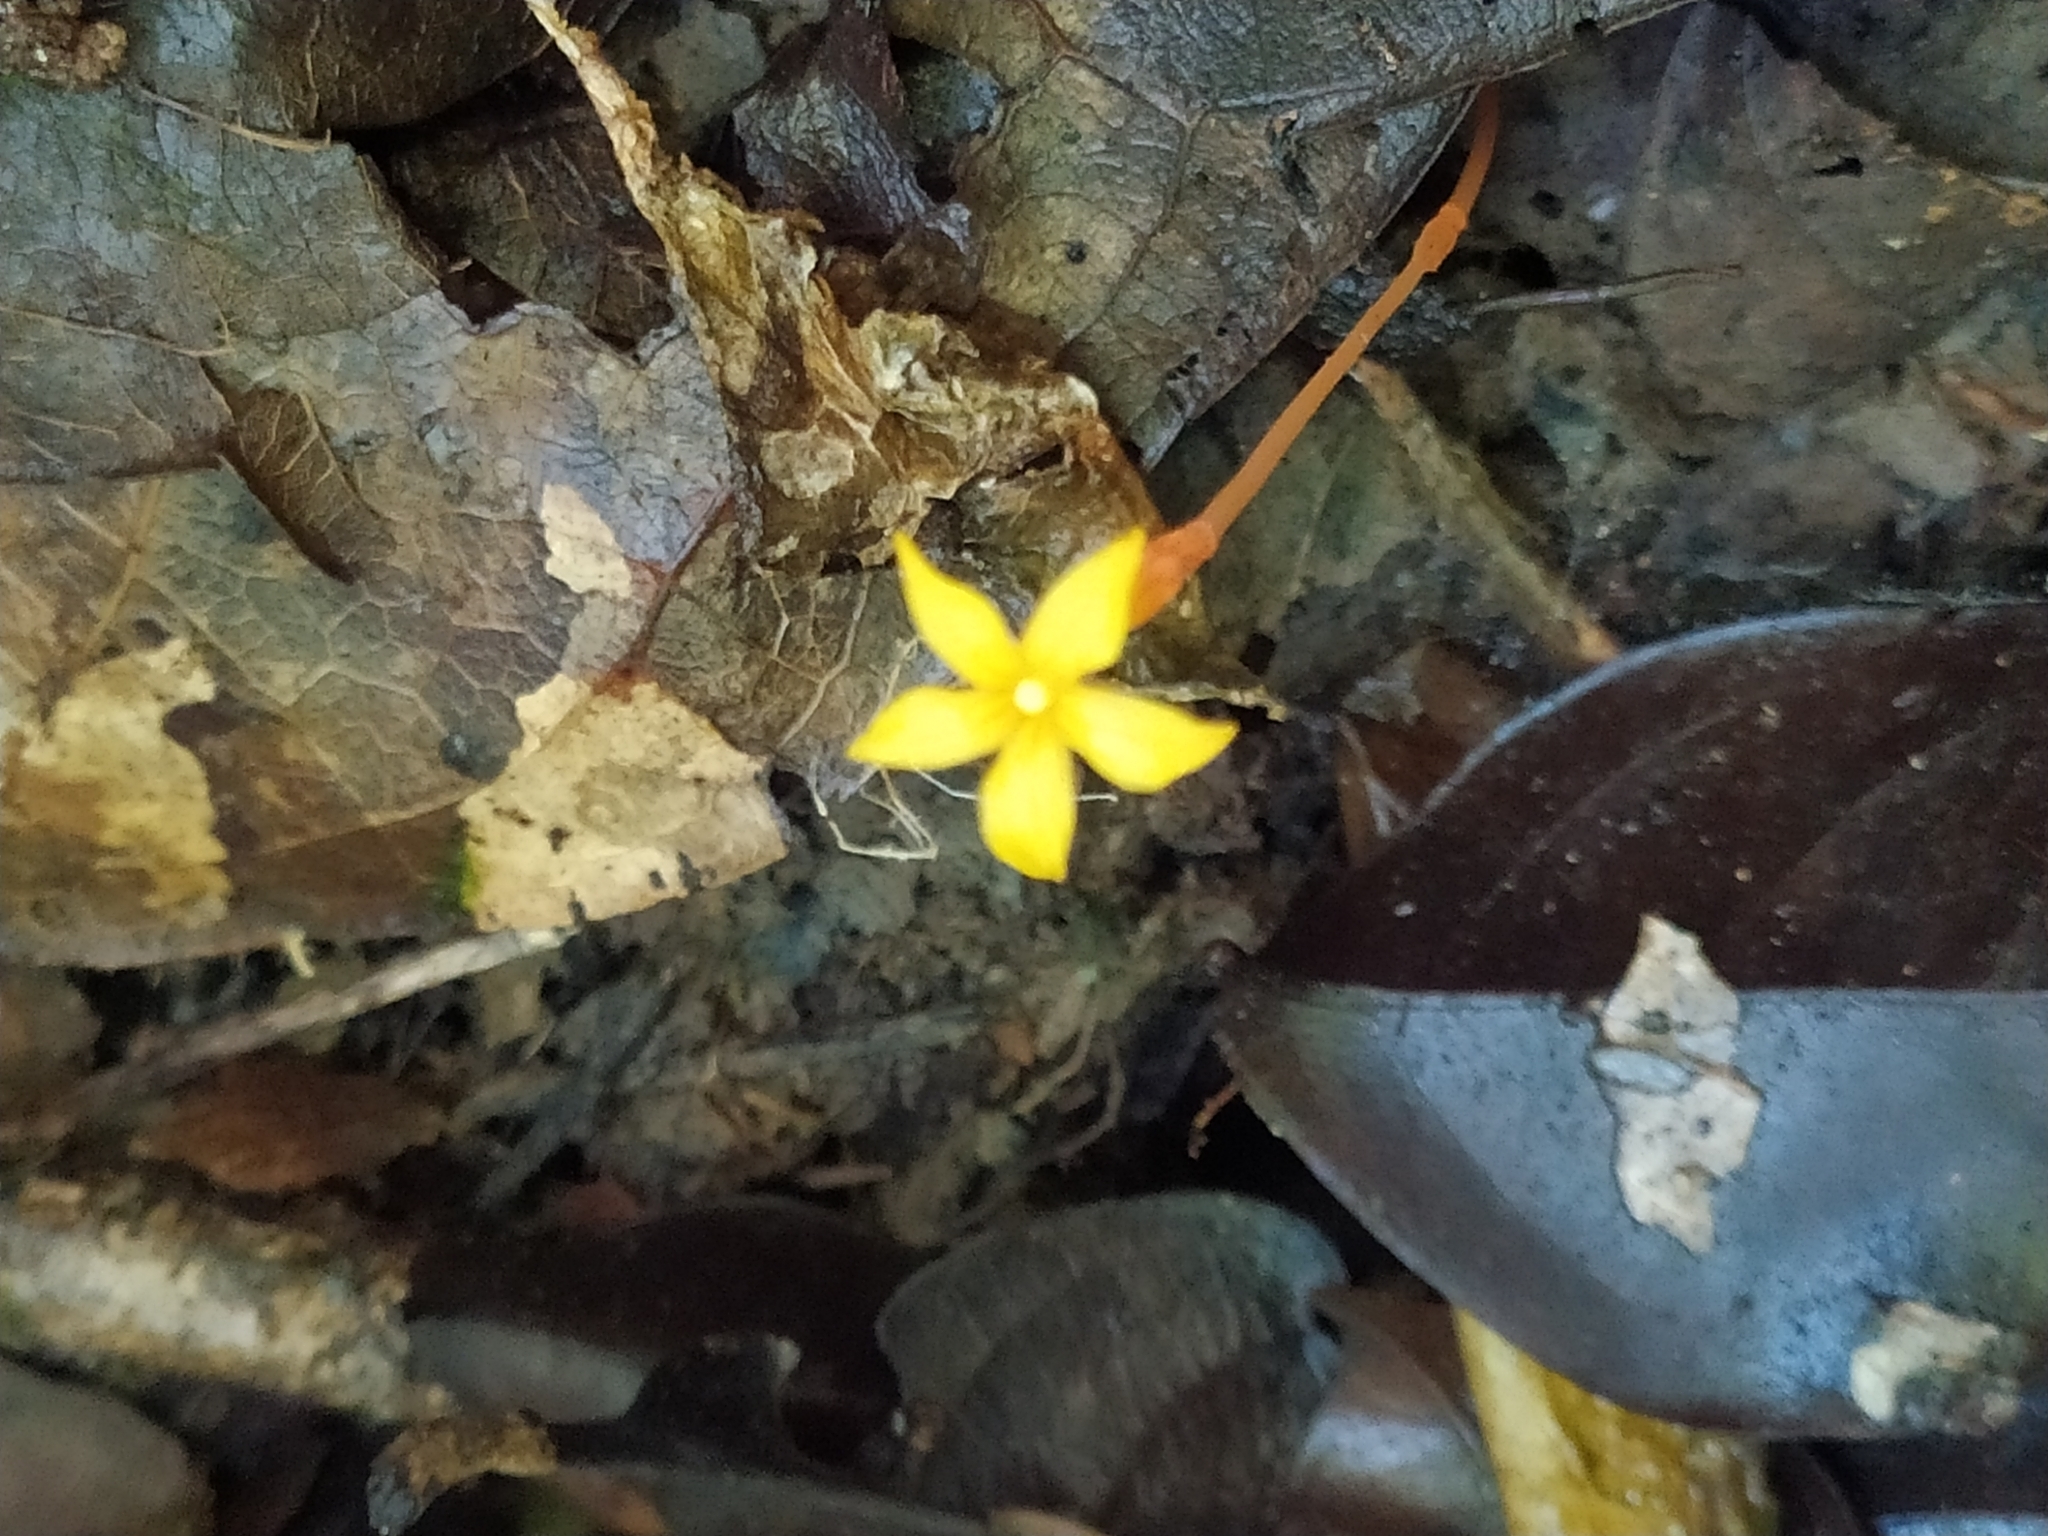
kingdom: Plantae
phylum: Tracheophyta
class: Magnoliopsida
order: Gentianales
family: Gentianaceae
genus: Voyria
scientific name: Voyria aurantiaca
